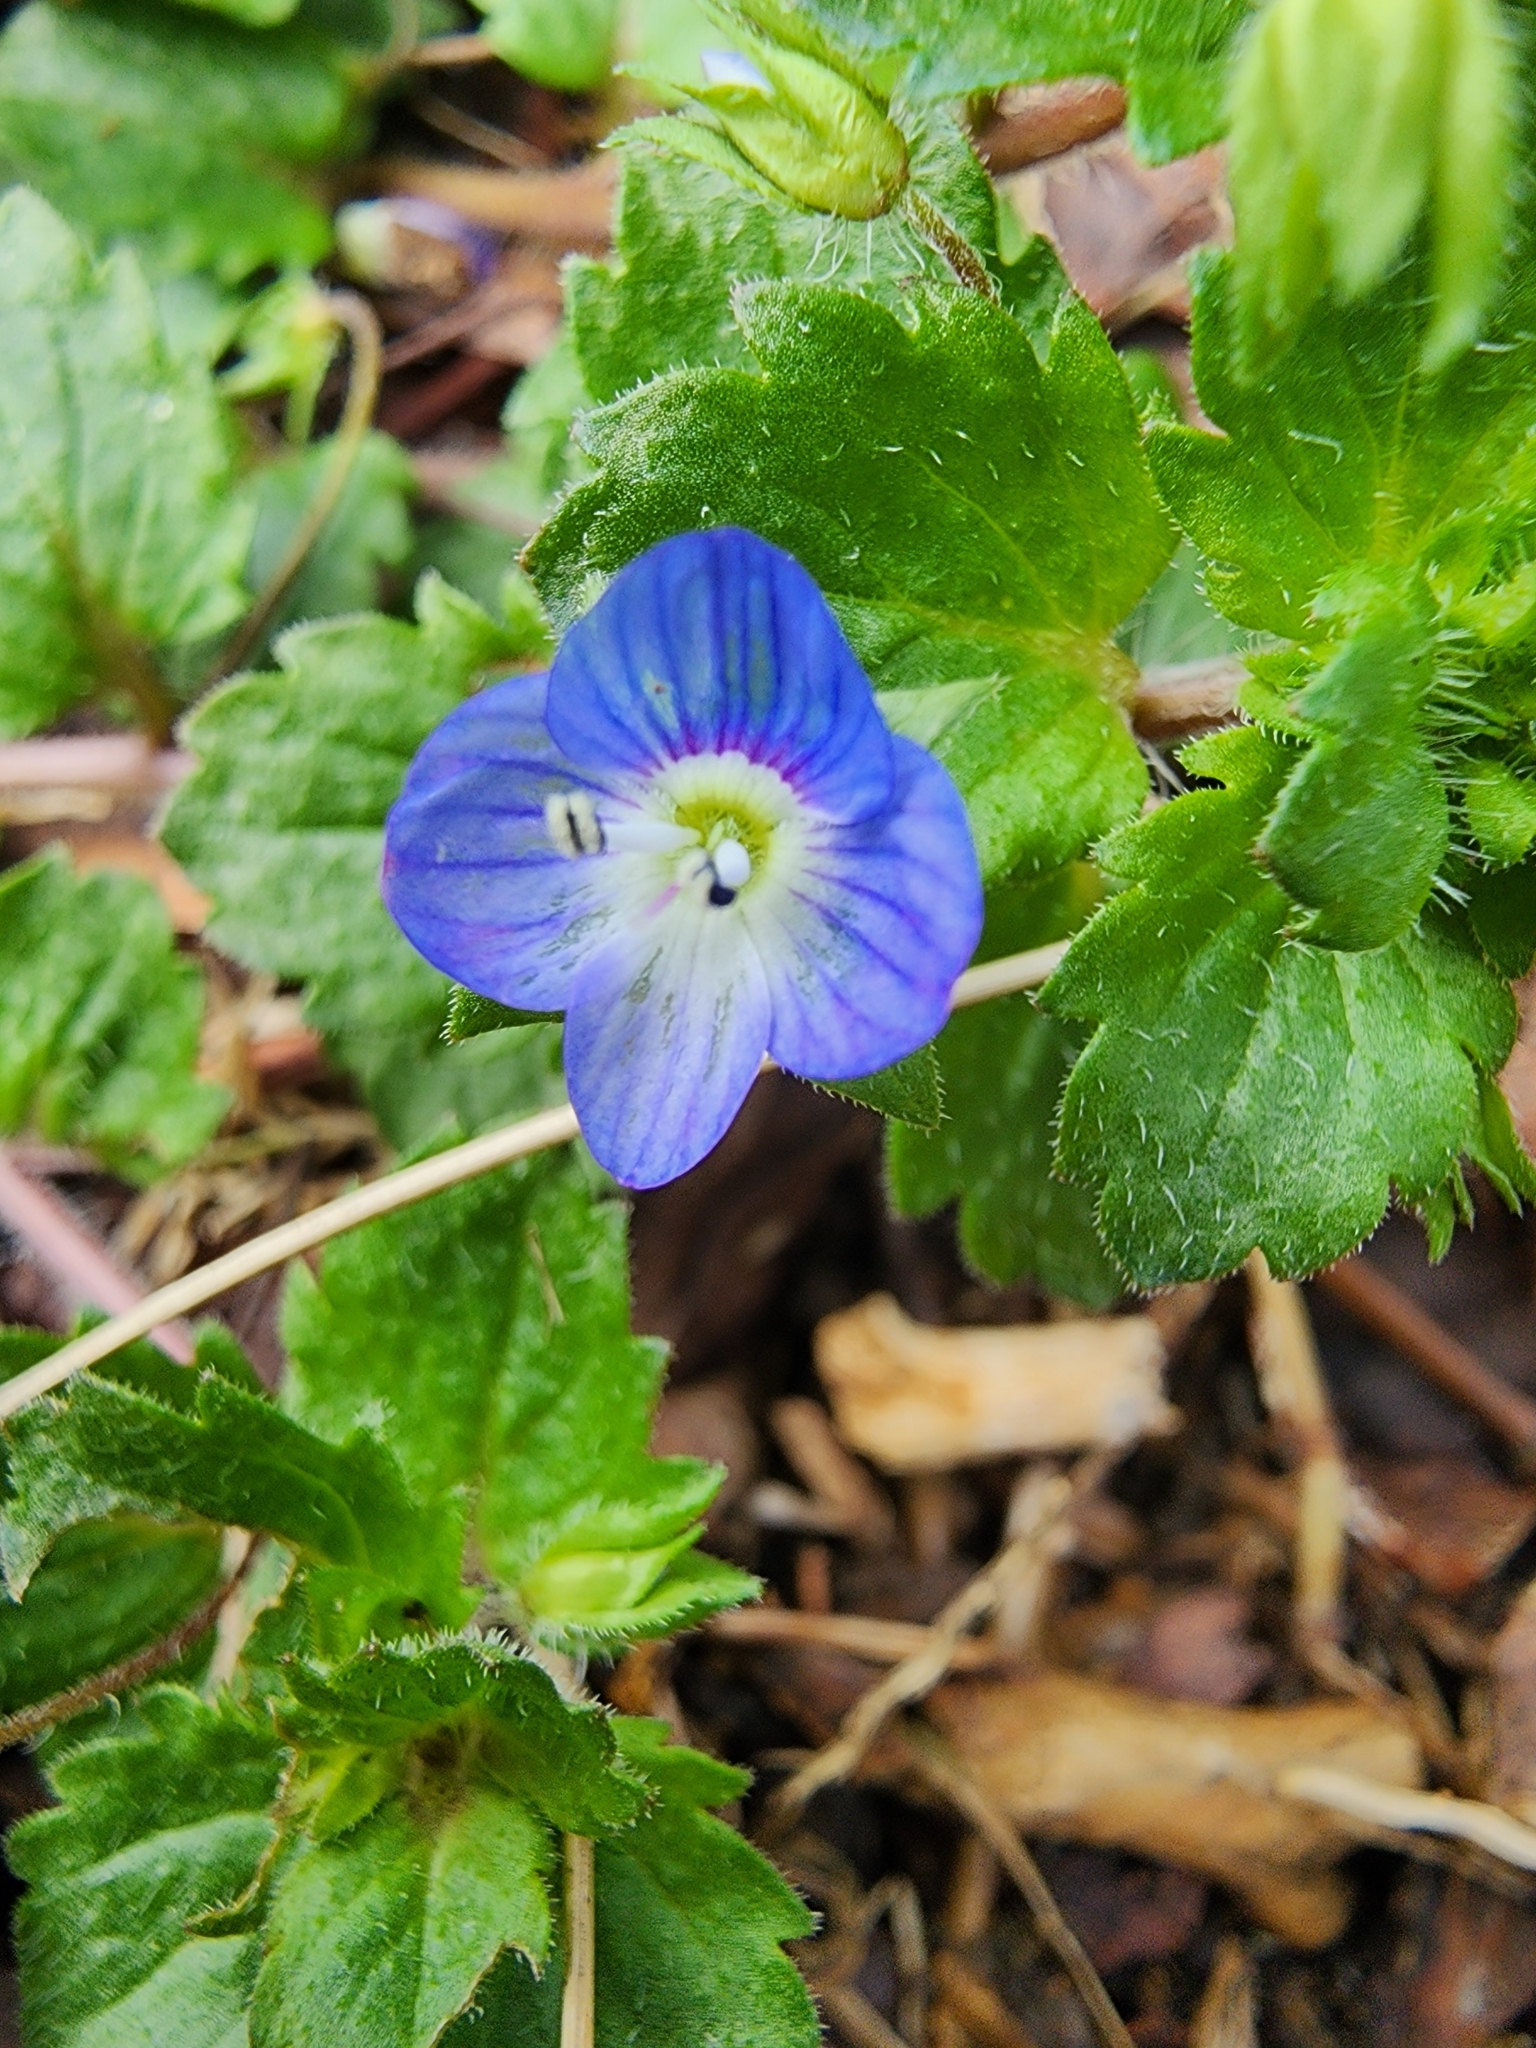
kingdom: Plantae
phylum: Tracheophyta
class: Magnoliopsida
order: Lamiales
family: Plantaginaceae
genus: Veronica
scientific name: Veronica persica
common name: Common field-speedwell
